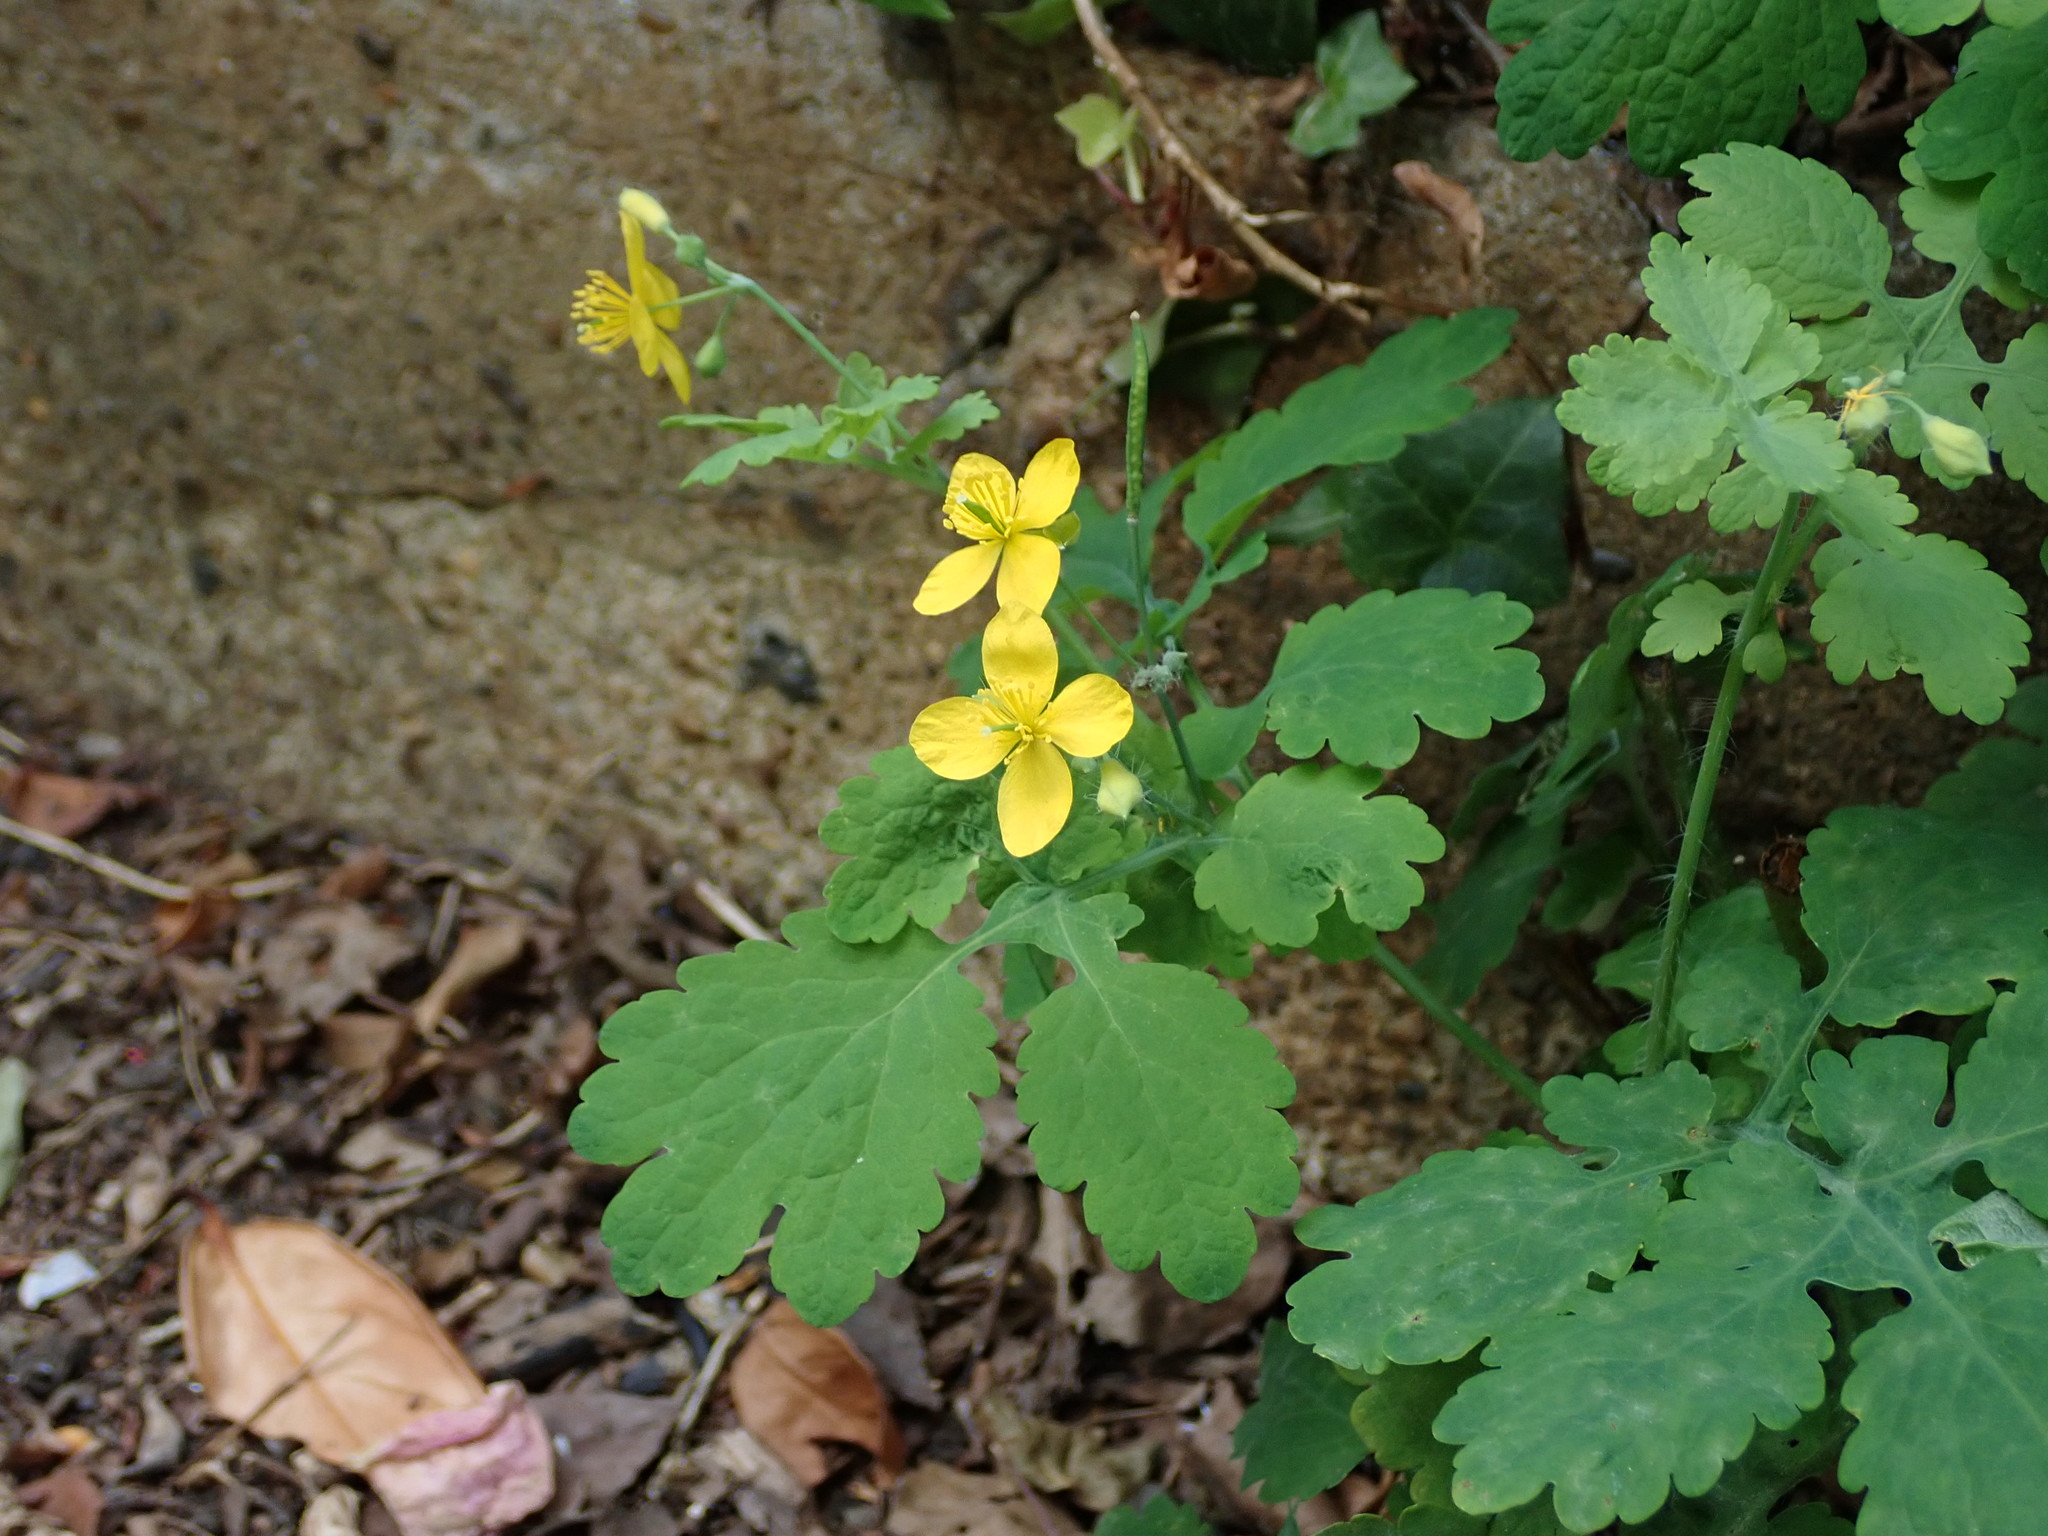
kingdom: Plantae
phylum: Tracheophyta
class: Magnoliopsida
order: Ranunculales
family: Papaveraceae
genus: Chelidonium
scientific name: Chelidonium majus
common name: Greater celandine
